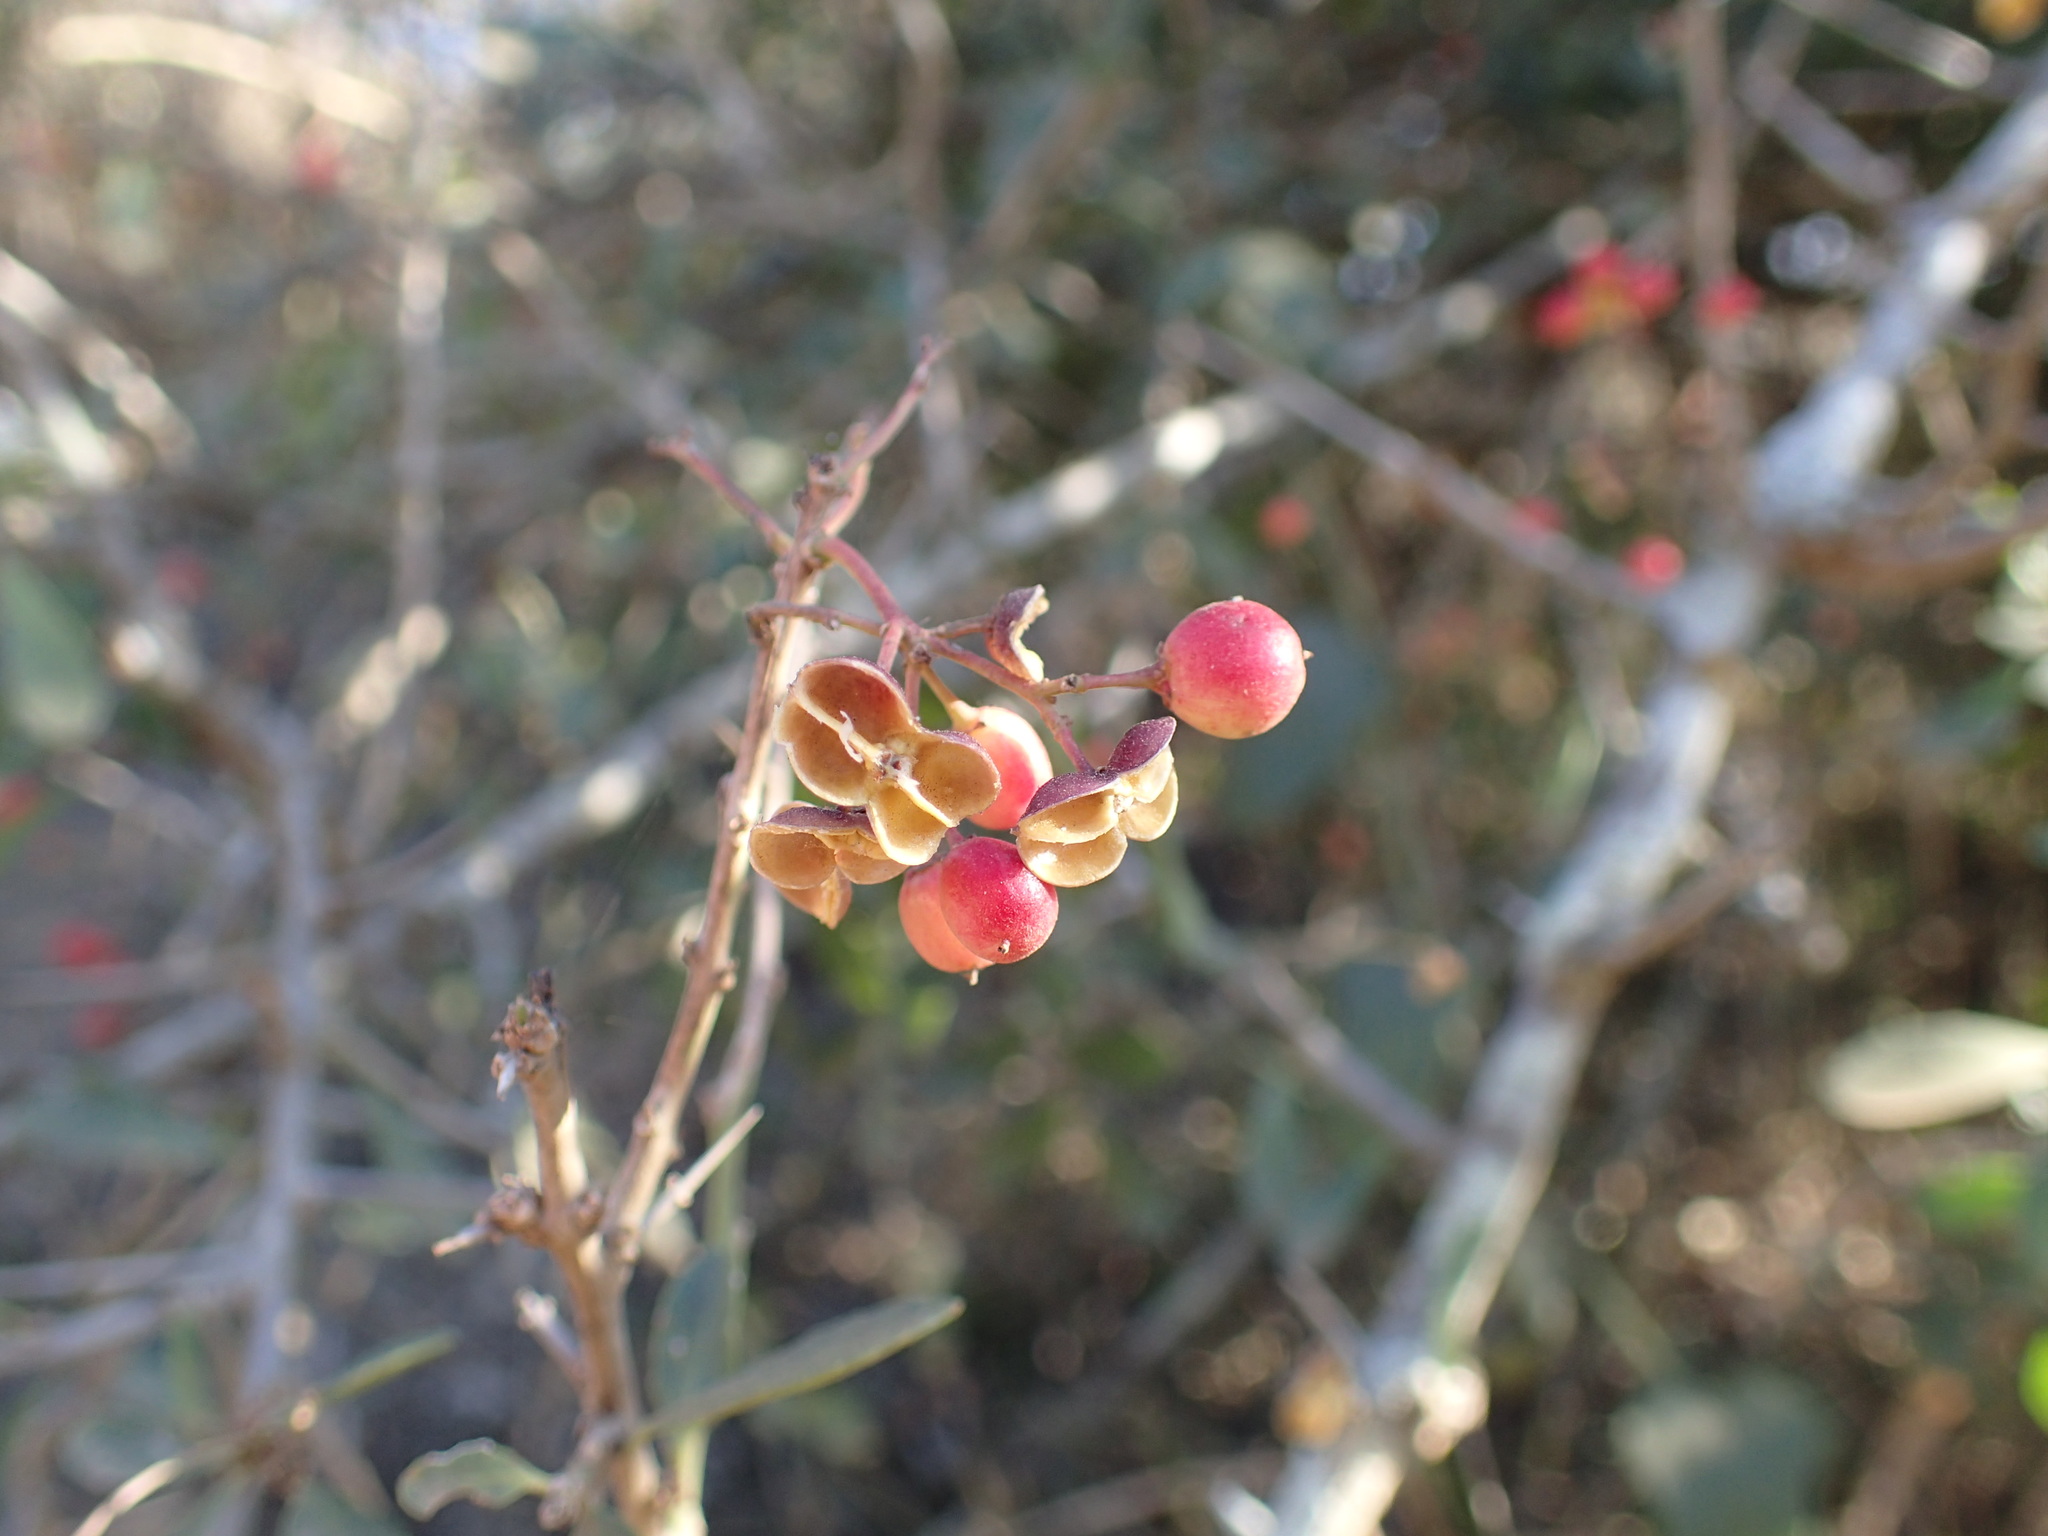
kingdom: Plantae
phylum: Tracheophyta
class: Magnoliopsida
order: Celastrales
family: Celastraceae
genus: Gymnosporia
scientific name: Gymnosporia maranguensis
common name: Tropical spike-thorn
